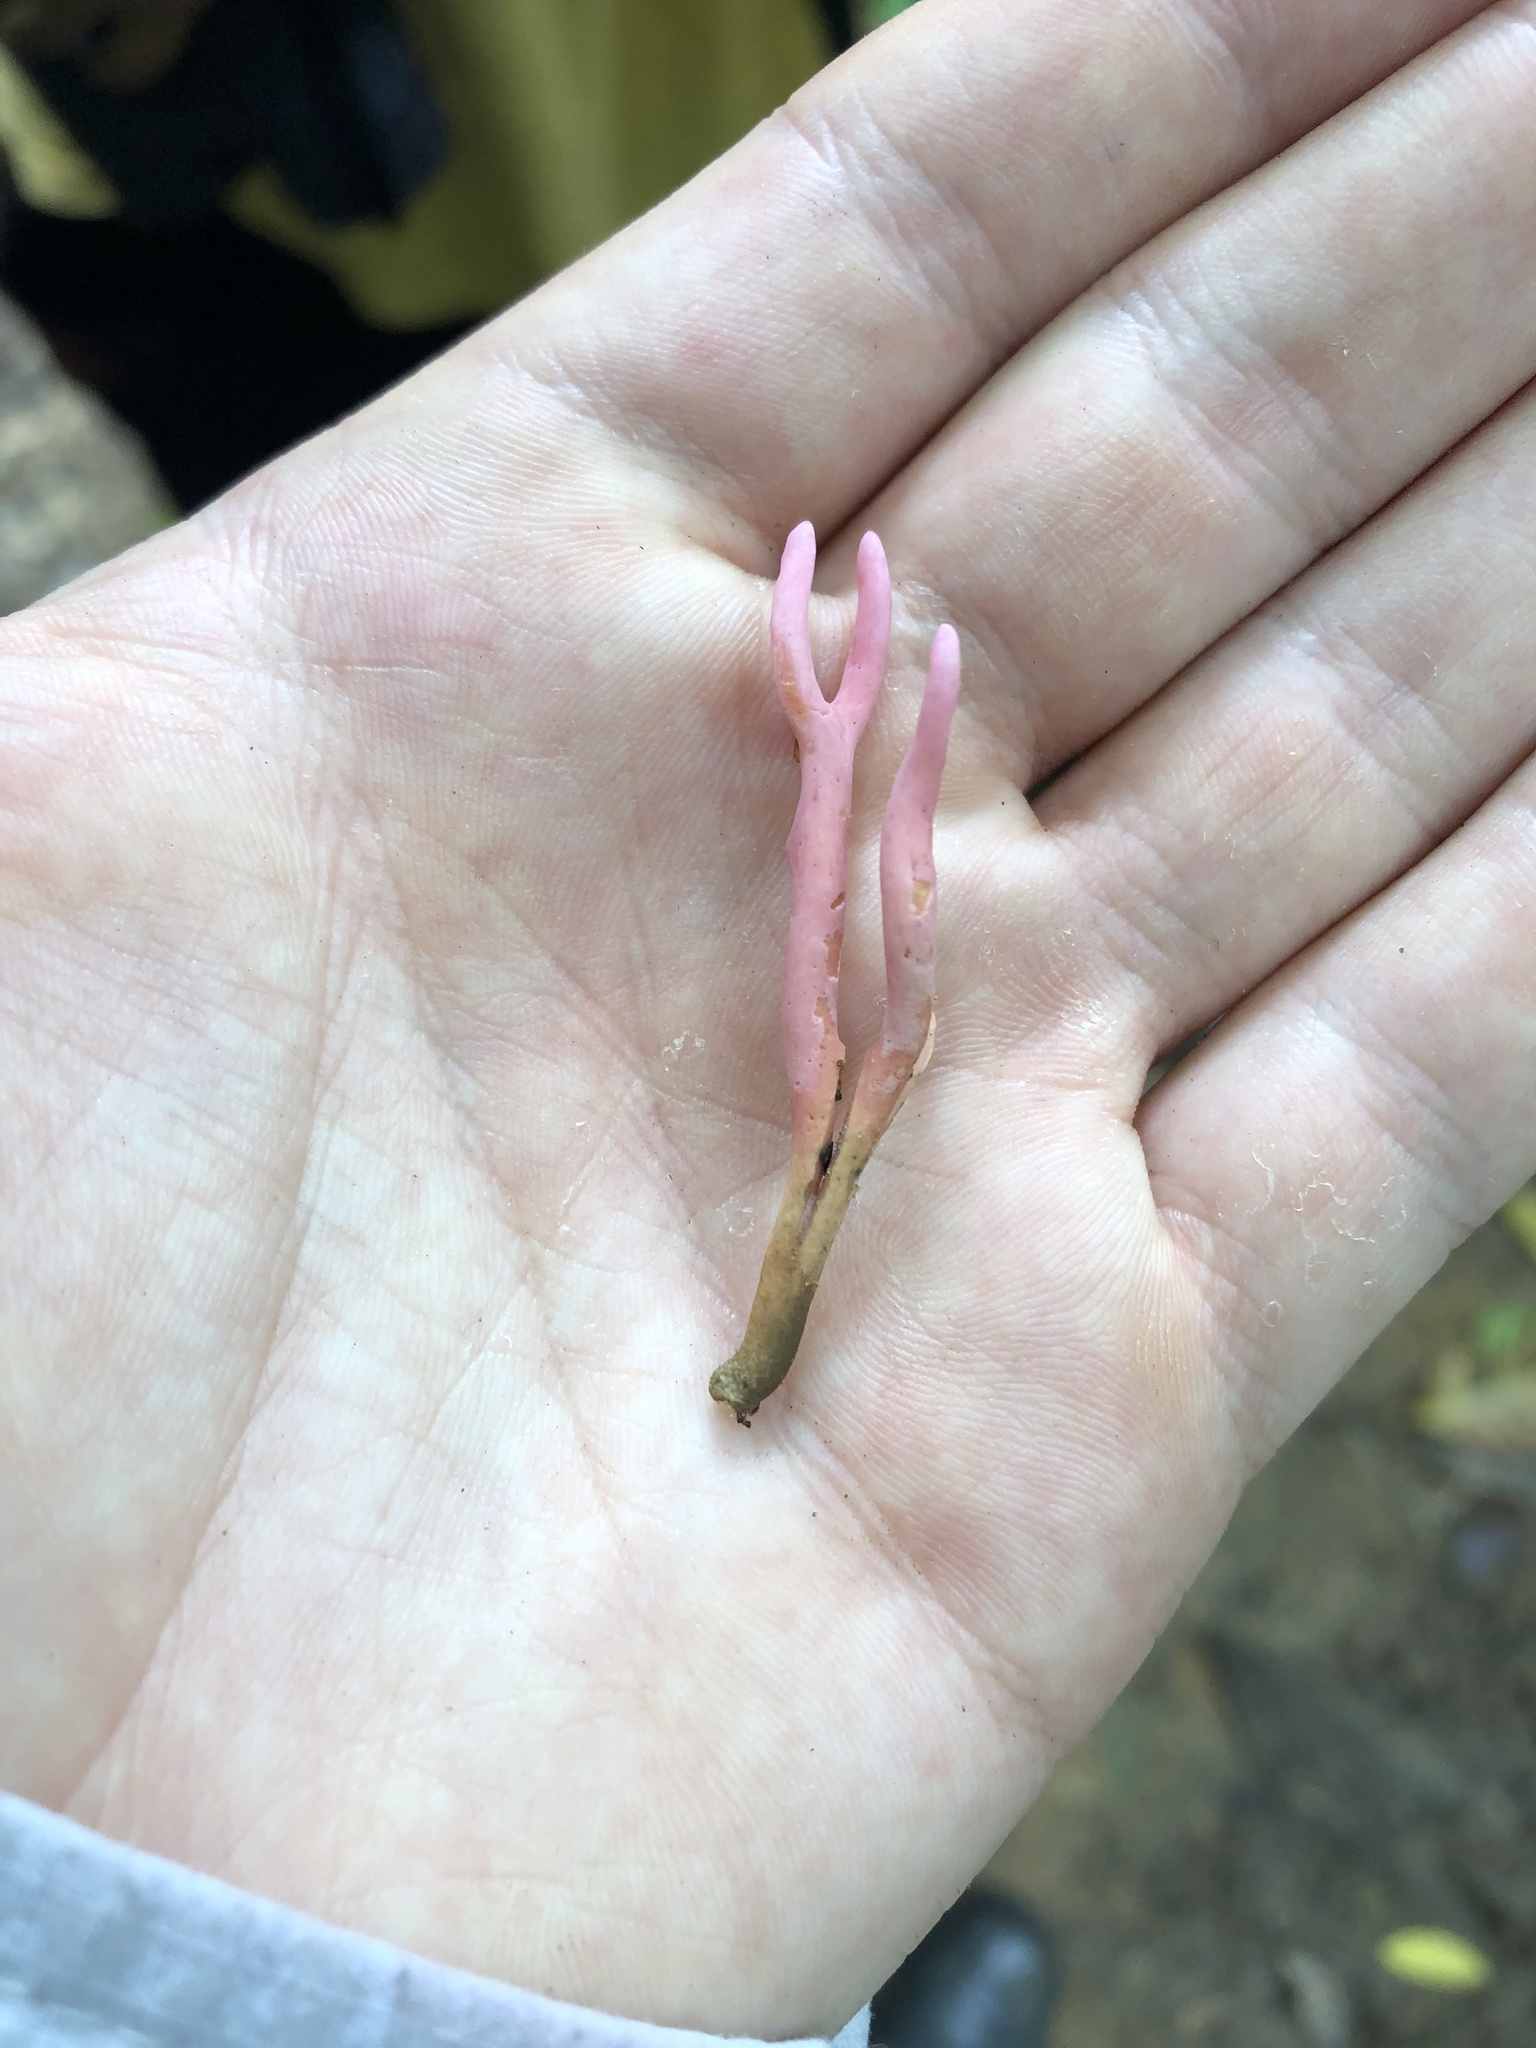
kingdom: Fungi
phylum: Basidiomycota
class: Agaricomycetes
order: Agaricales
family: Clavariaceae
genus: Clavaria
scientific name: Clavaria zollingeri
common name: Violet coral
